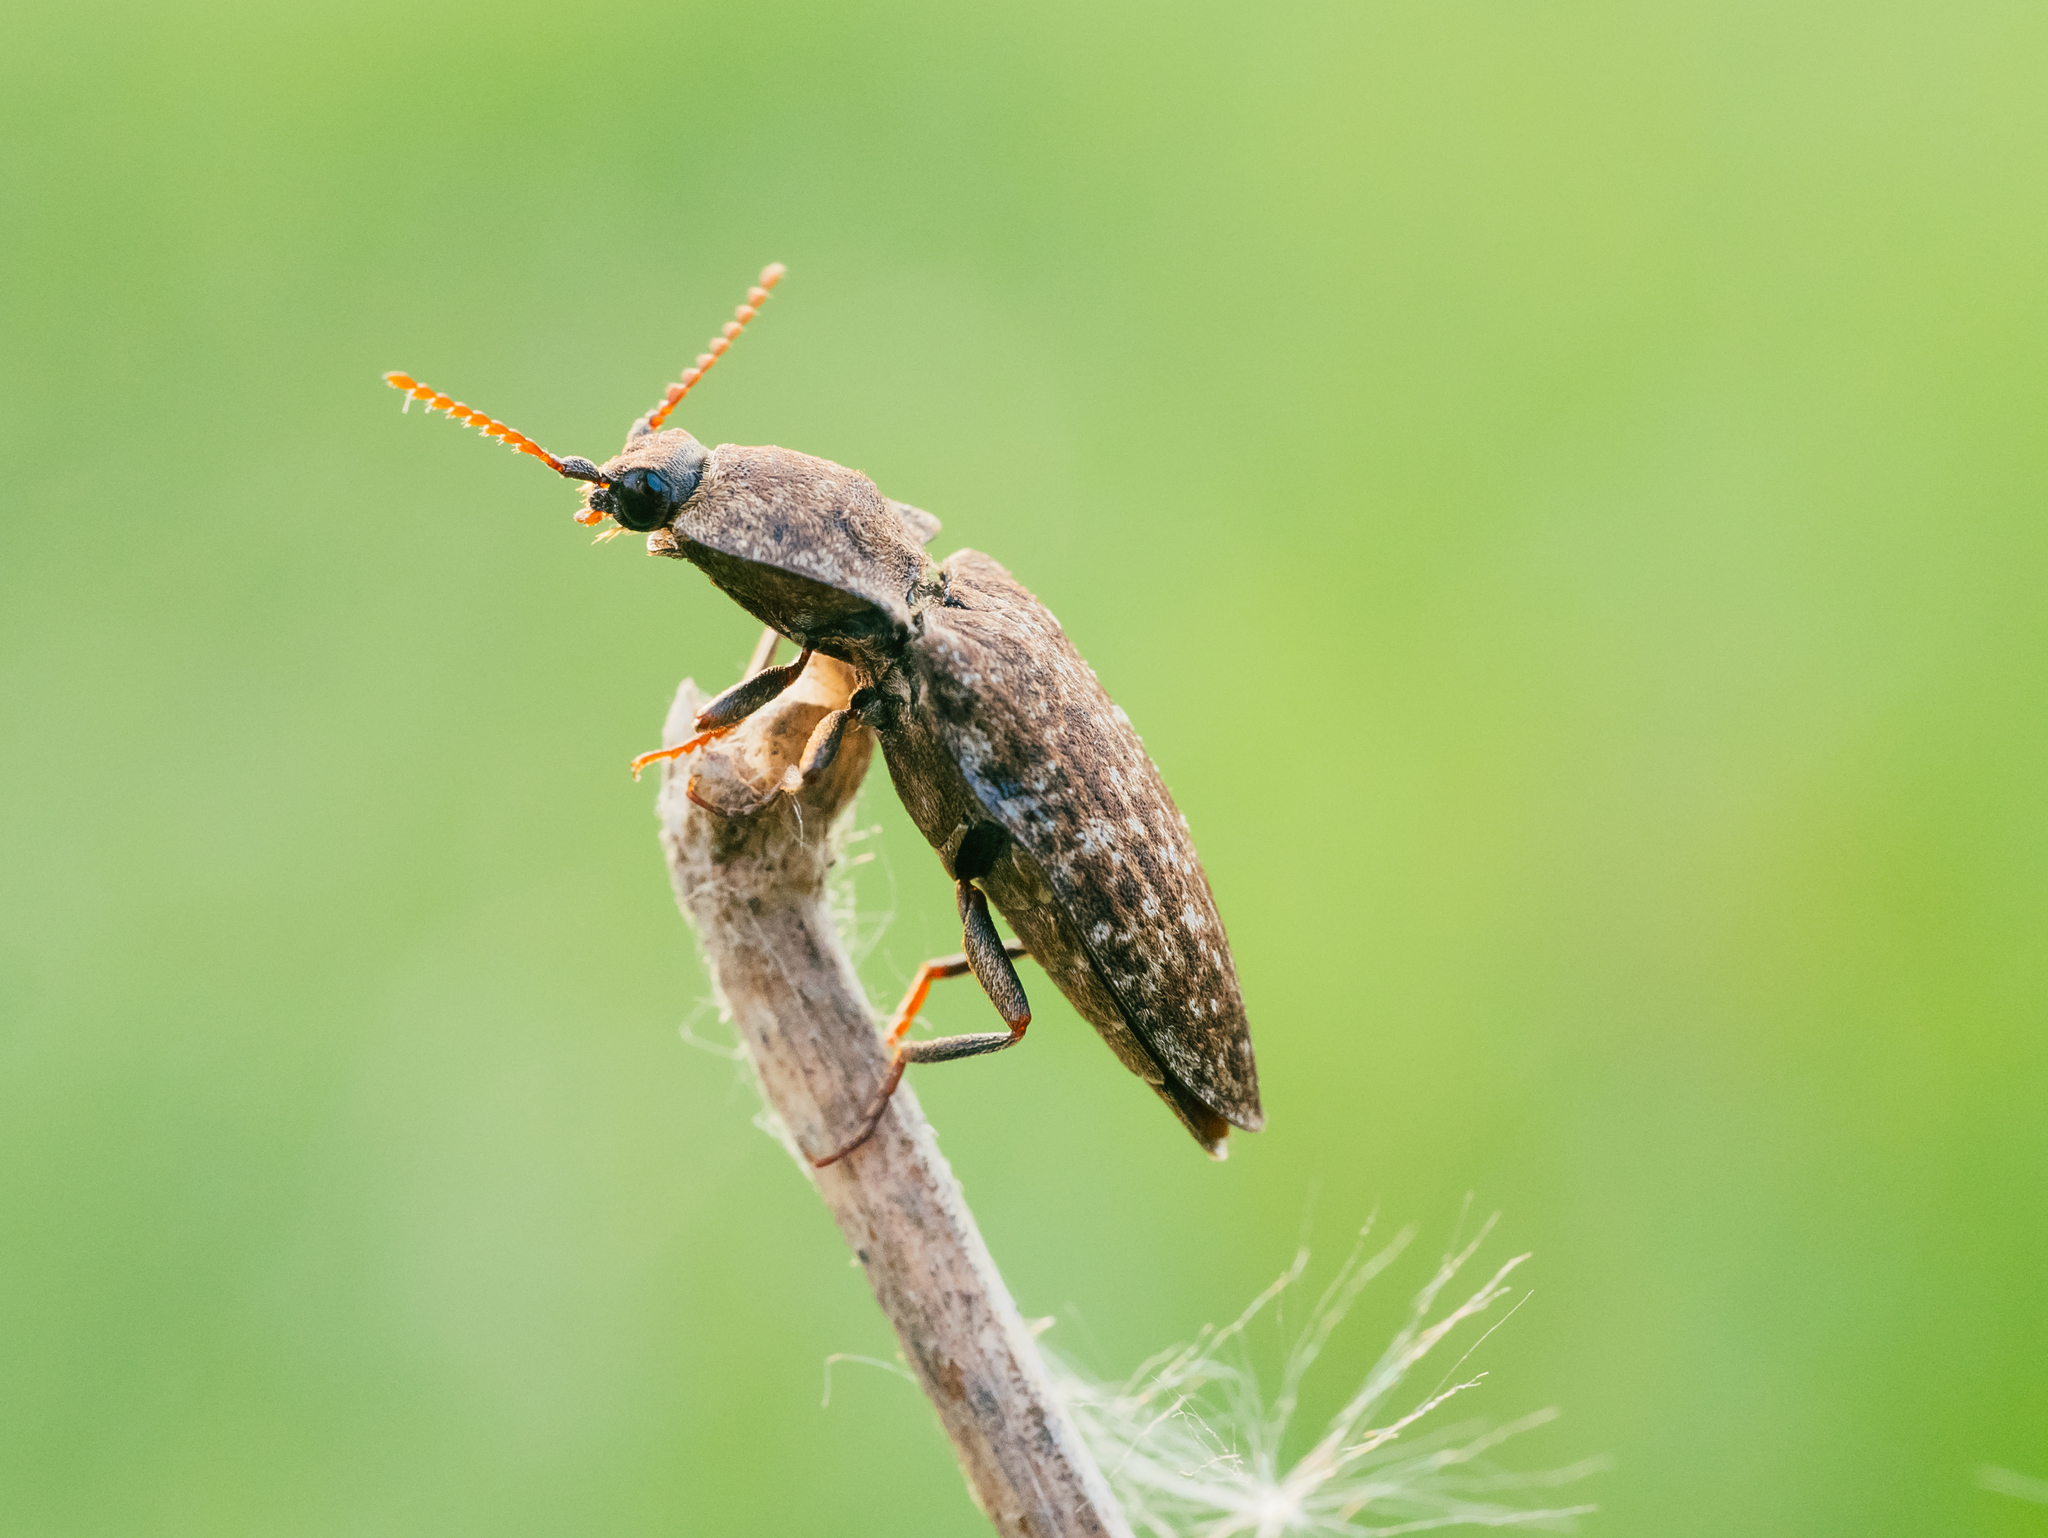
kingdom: Animalia
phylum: Arthropoda
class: Insecta
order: Coleoptera
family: Elateridae
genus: Agrypnus
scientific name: Agrypnus murinus
